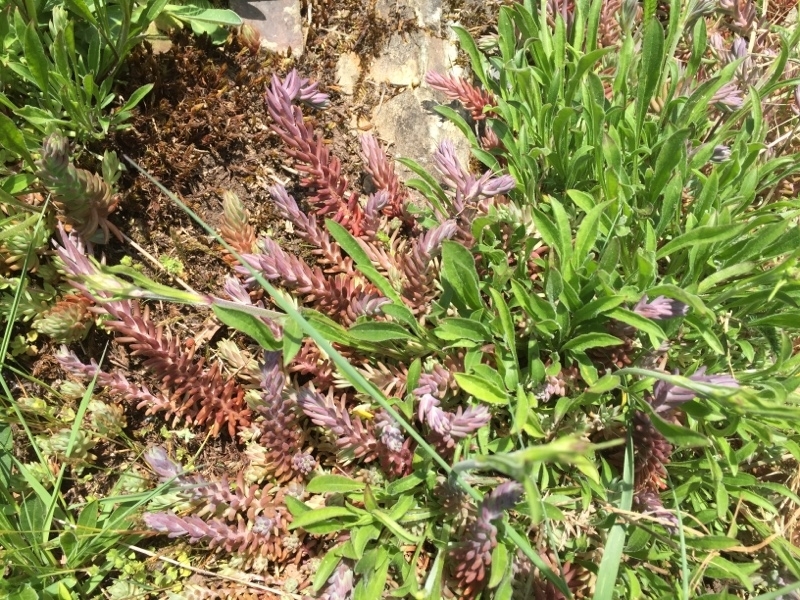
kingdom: Plantae
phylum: Tracheophyta
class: Magnoliopsida
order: Saxifragales
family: Crassulaceae
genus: Petrosedum
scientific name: Petrosedum rupestre
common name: Jenny's stonecrop
